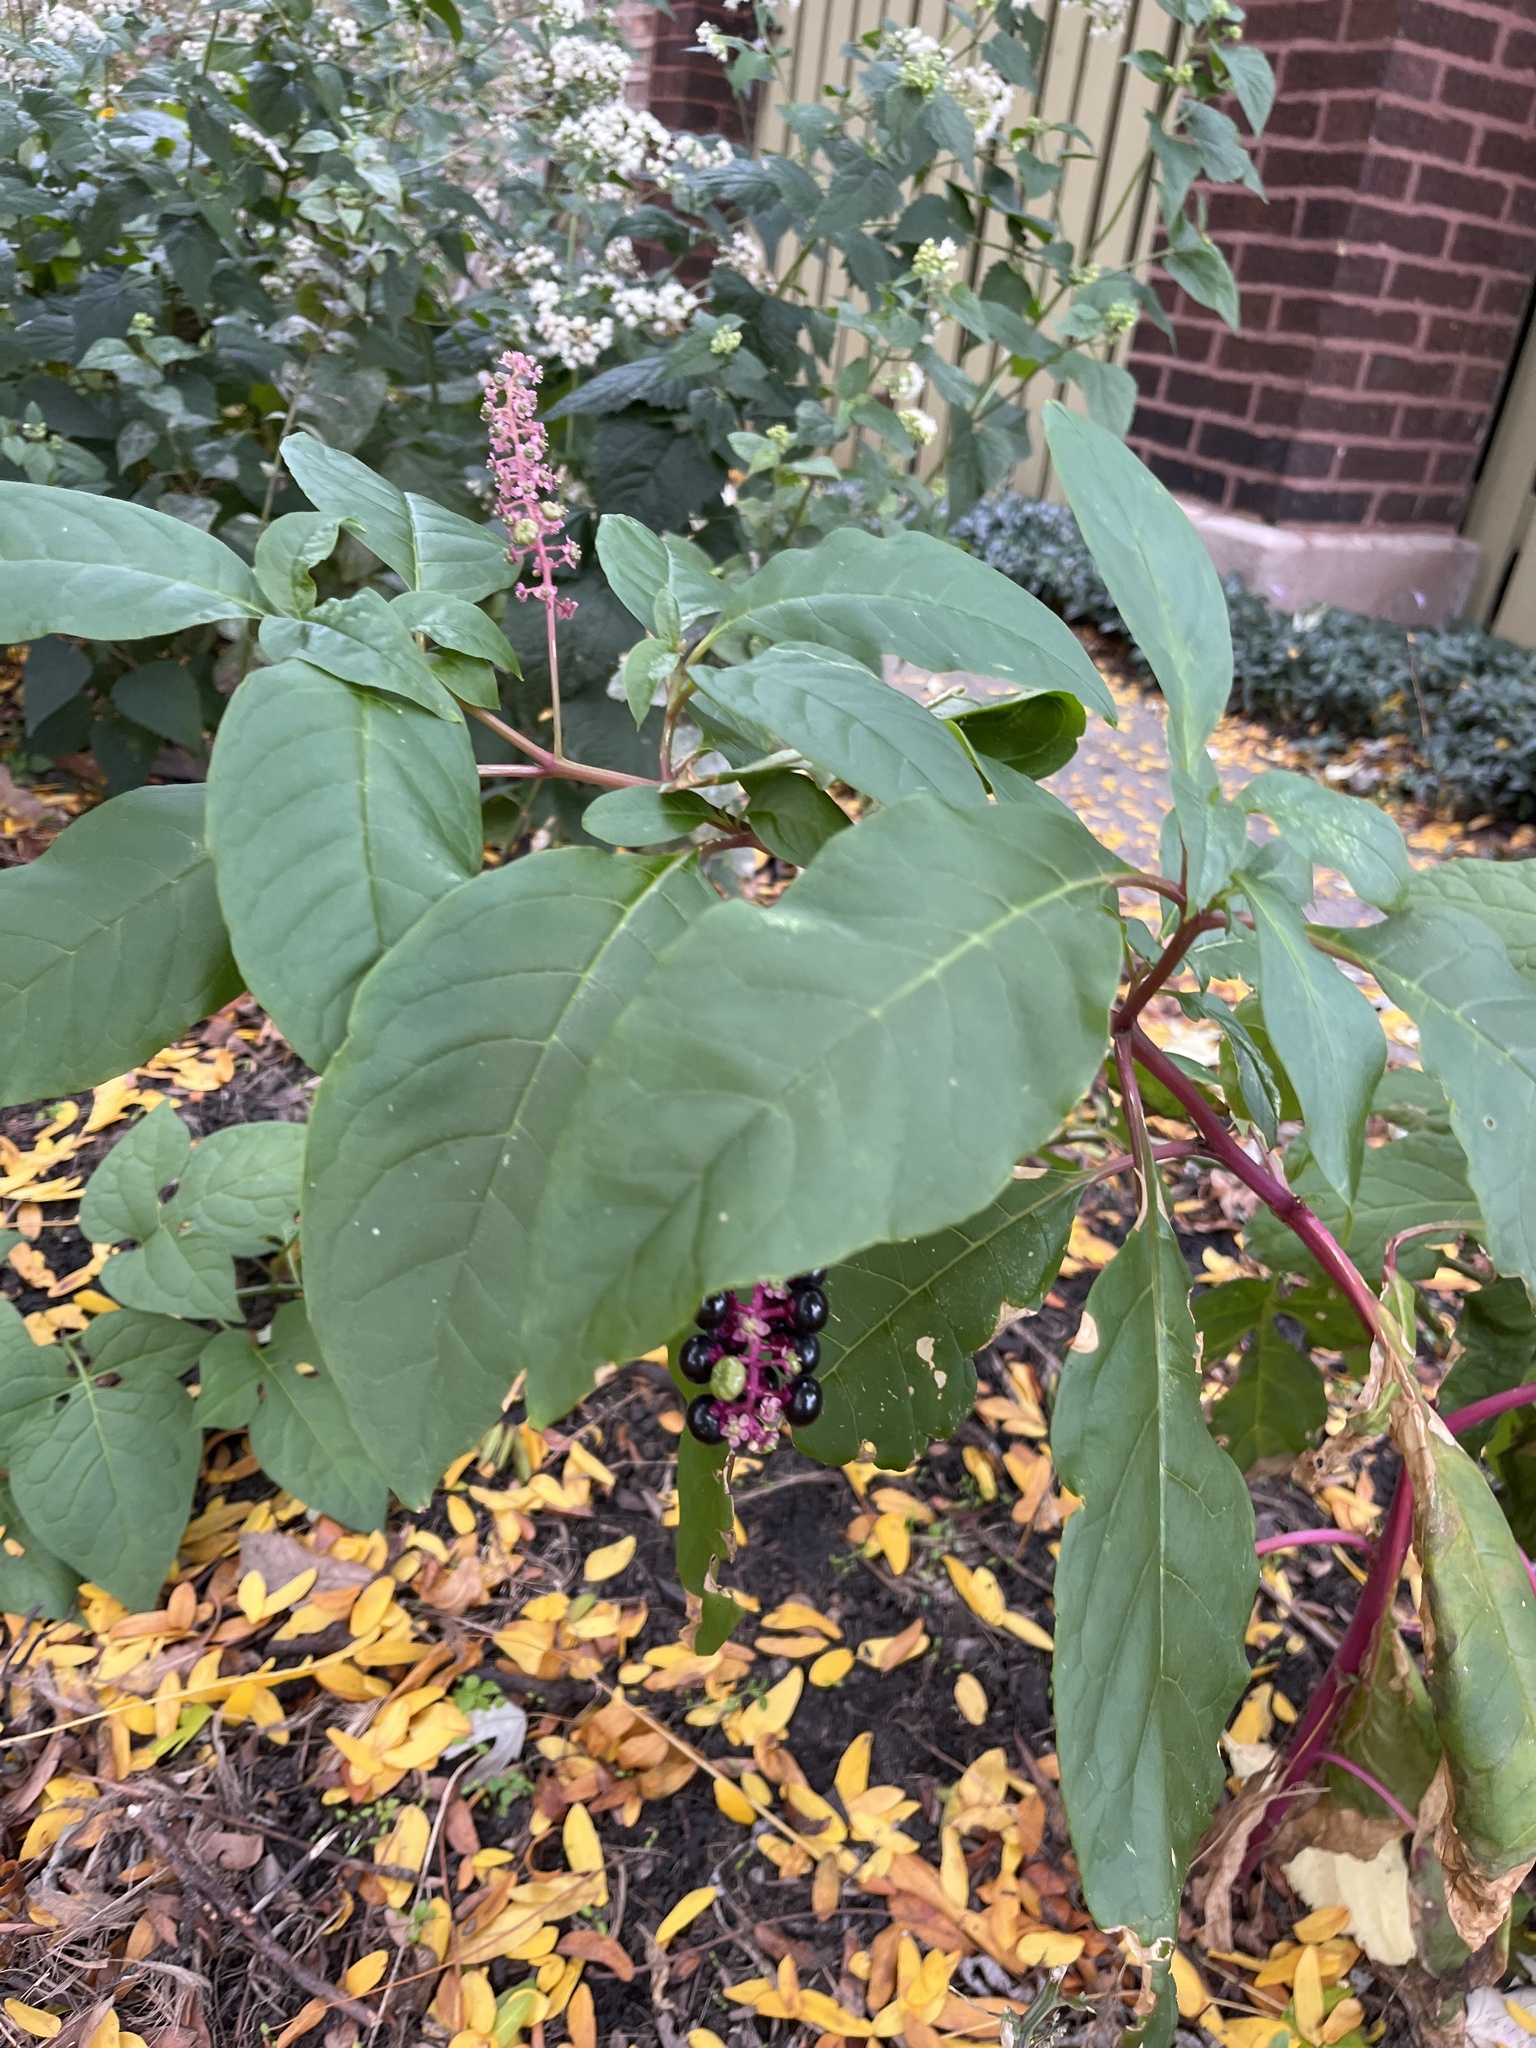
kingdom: Plantae
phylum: Tracheophyta
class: Magnoliopsida
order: Caryophyllales
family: Phytolaccaceae
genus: Phytolacca
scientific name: Phytolacca americana
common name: American pokeweed
